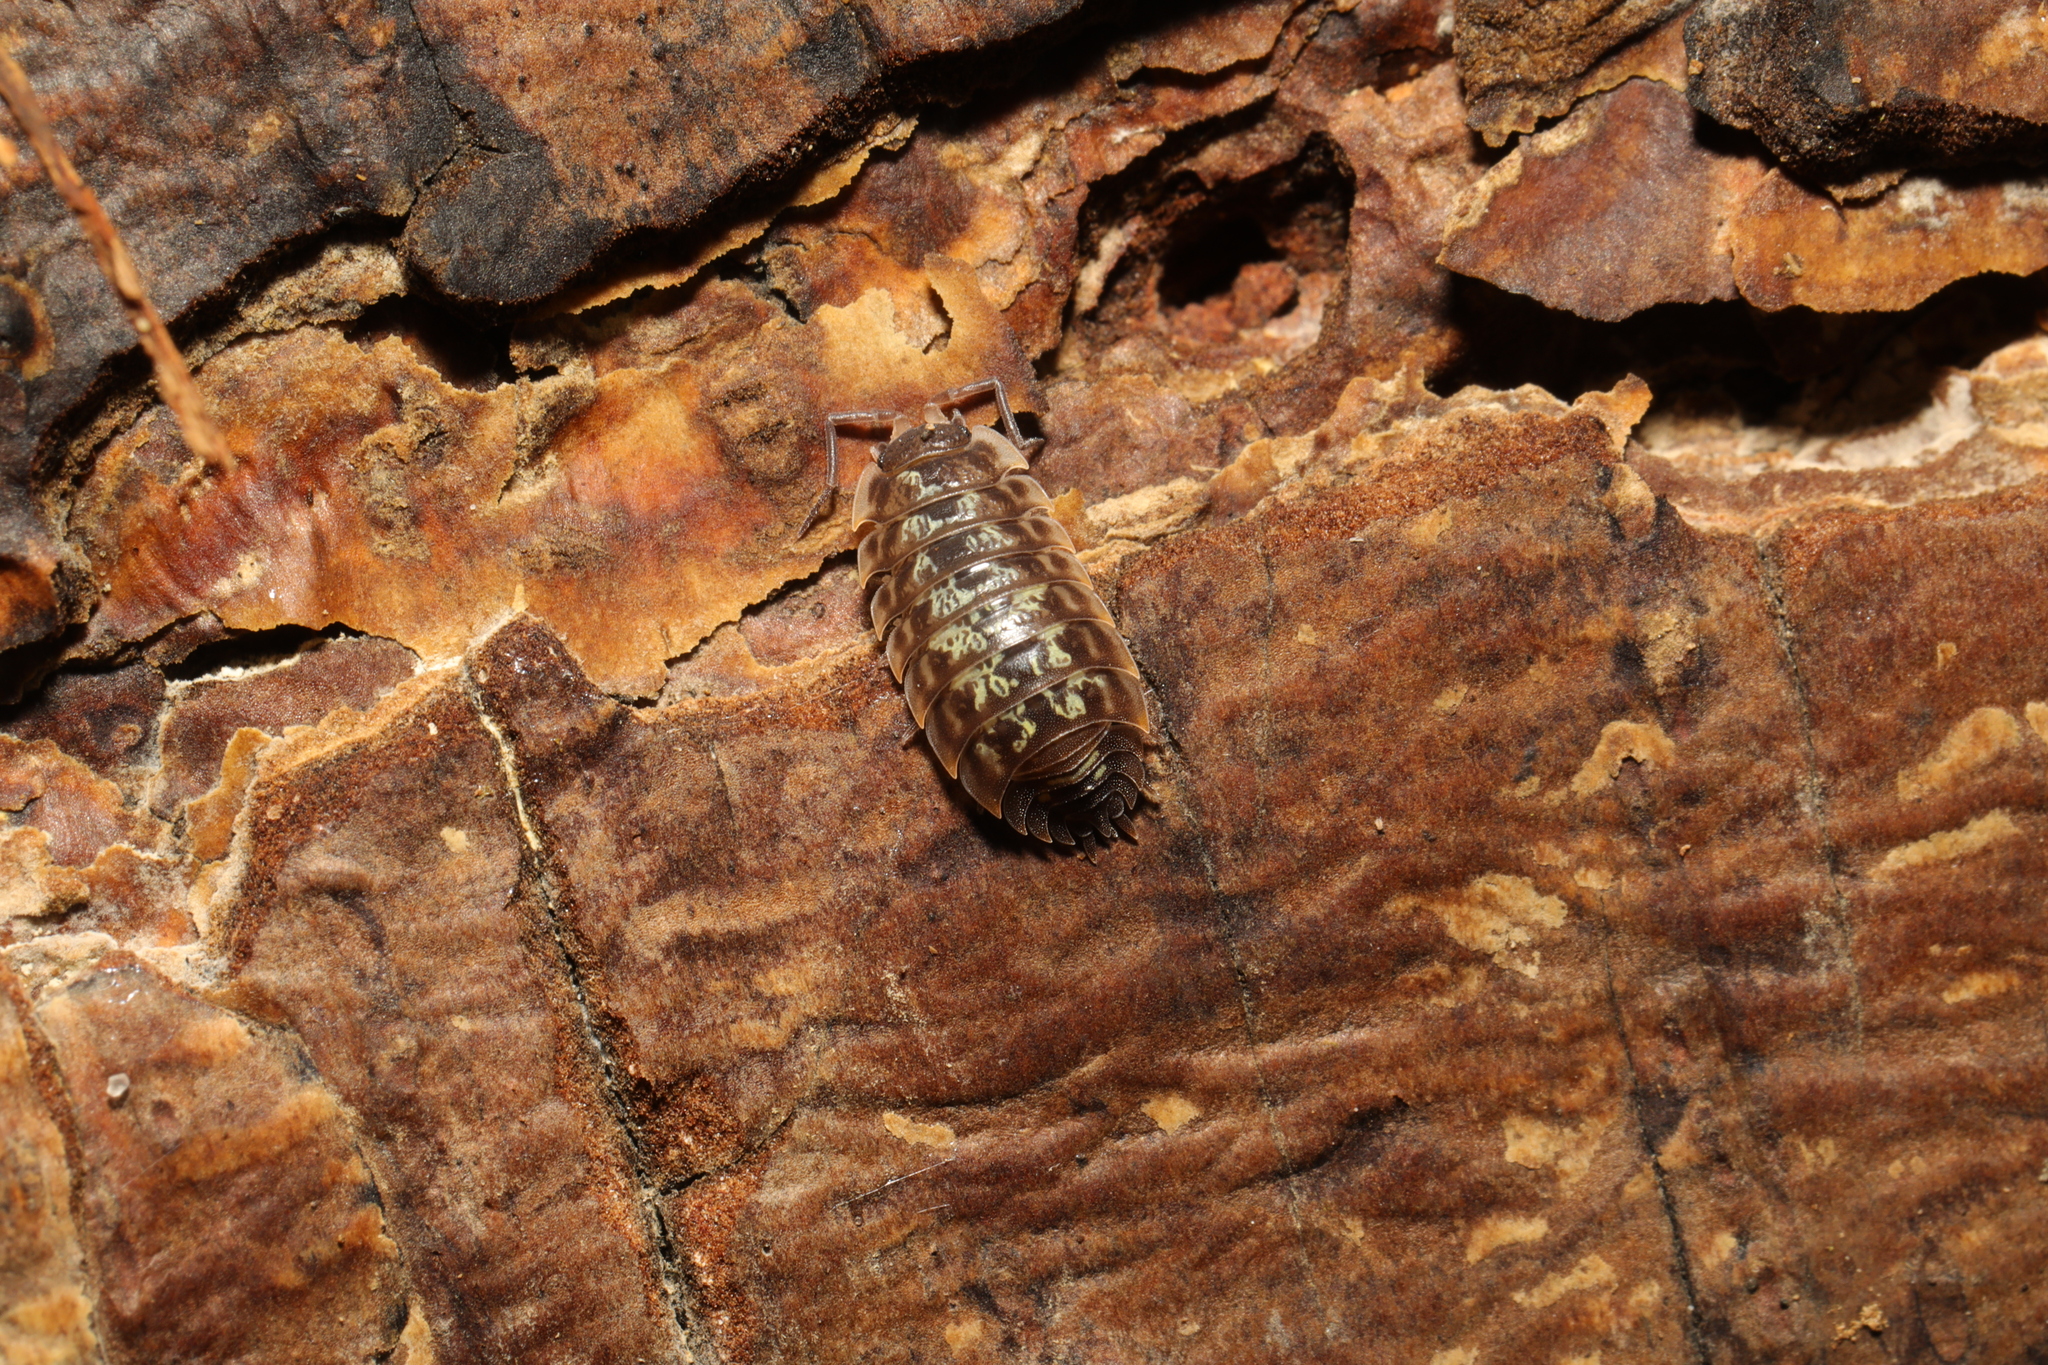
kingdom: Animalia
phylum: Arthropoda
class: Malacostraca
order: Isopoda
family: Oniscidae
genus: Oniscus
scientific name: Oniscus asellus
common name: Common shiny woodlouse
